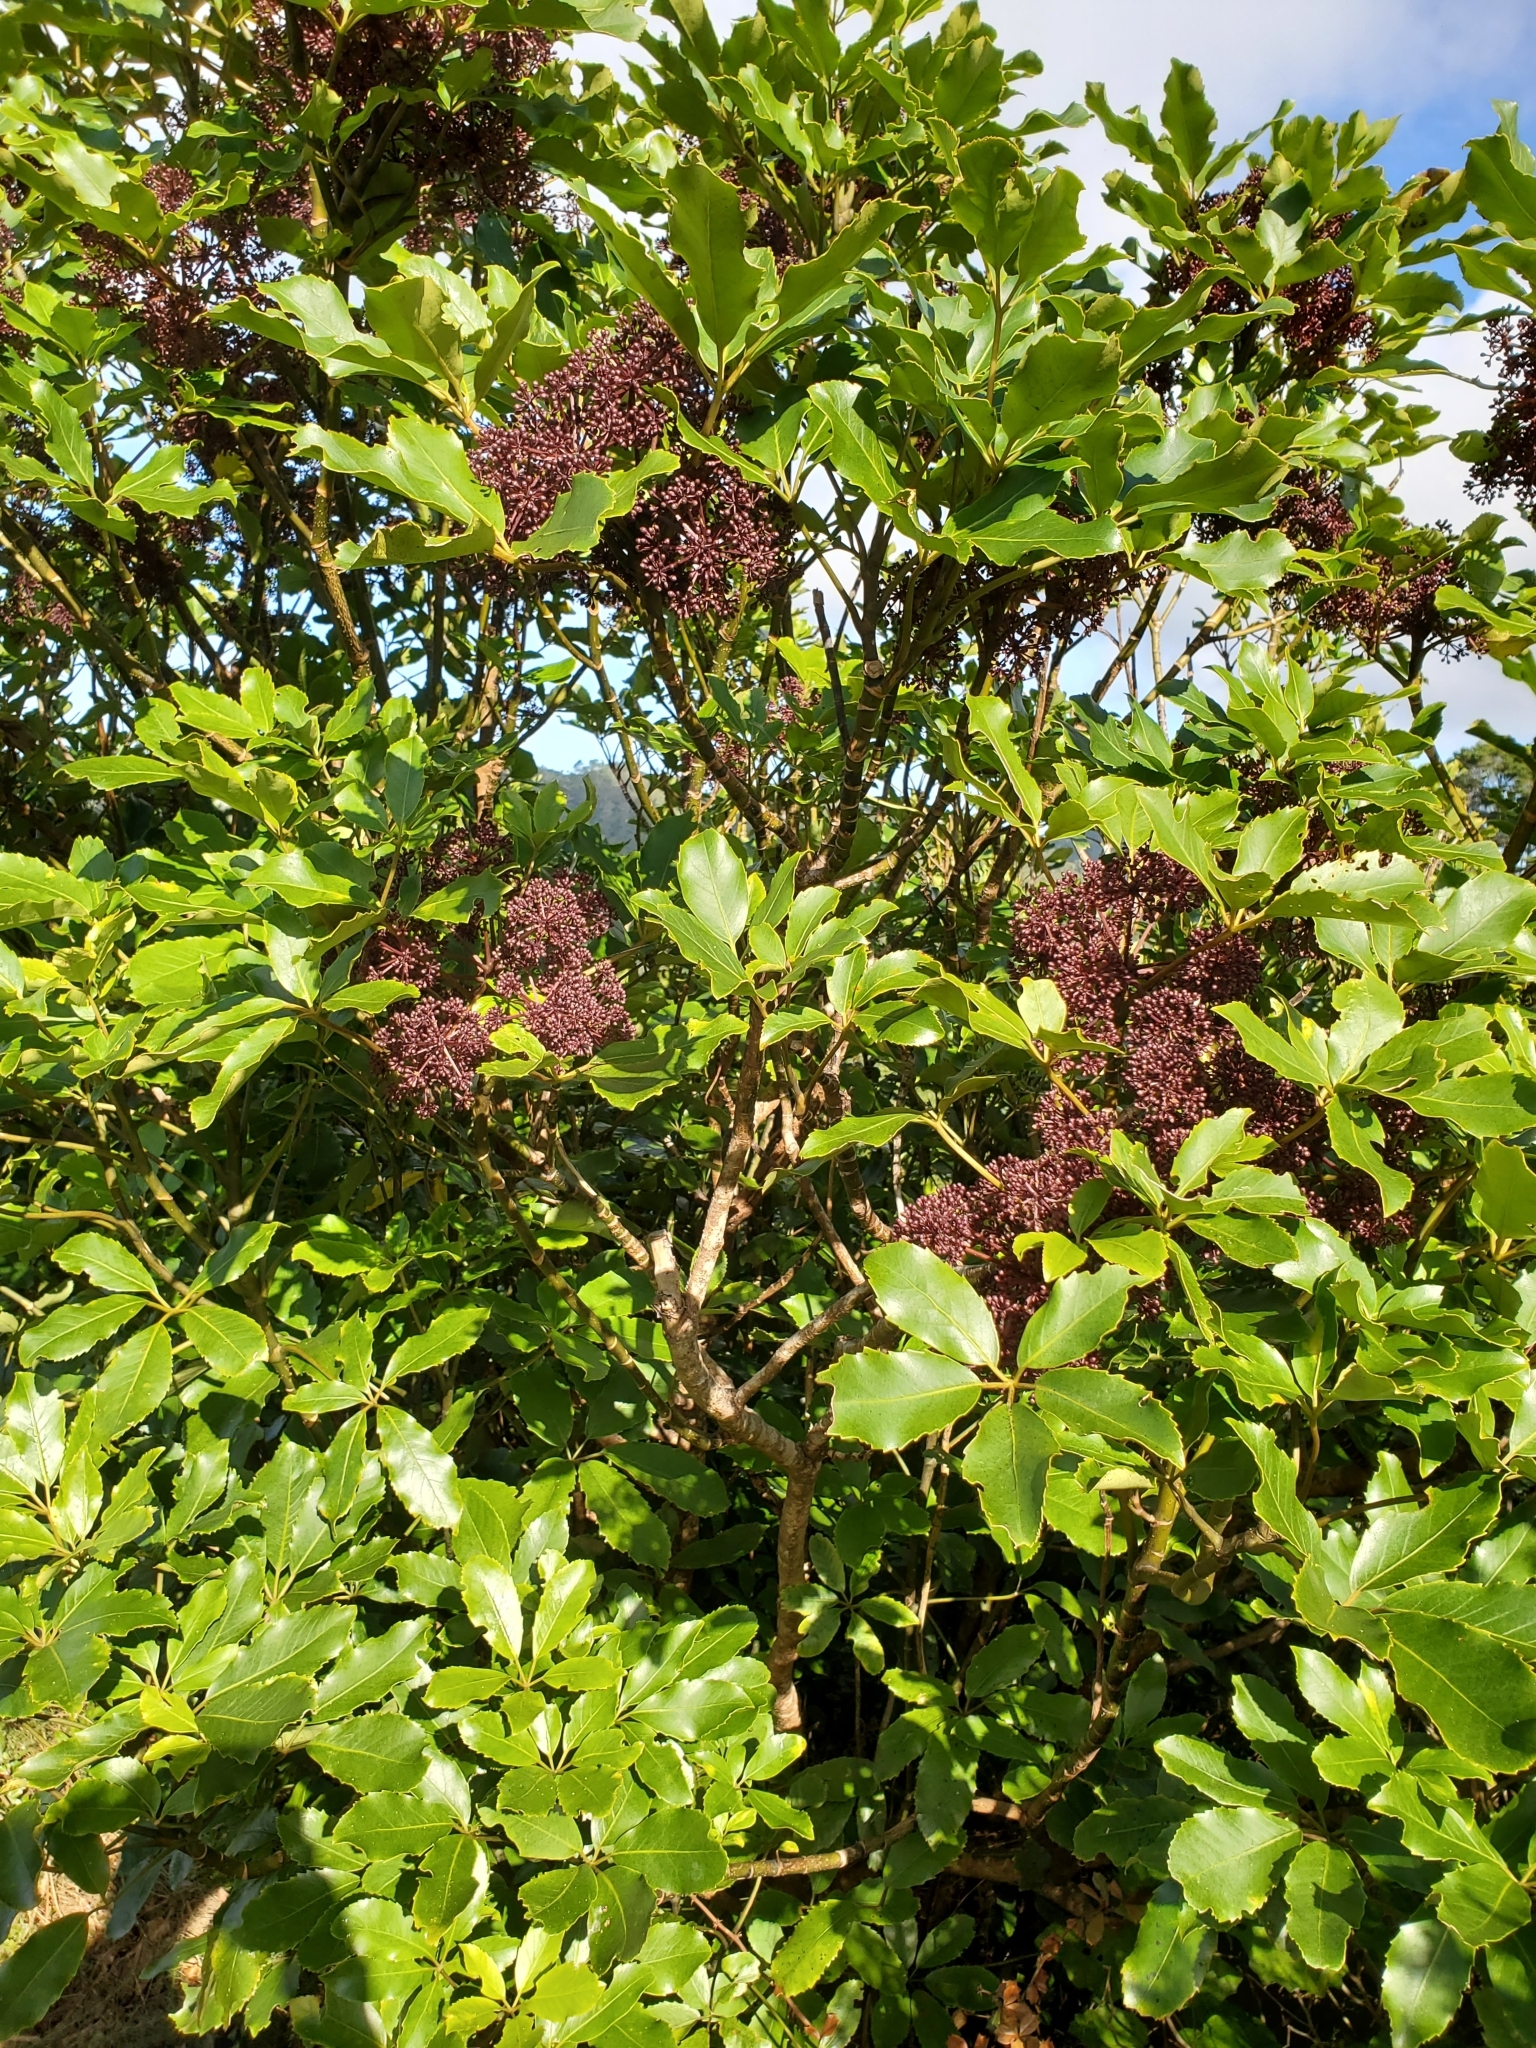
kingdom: Plantae
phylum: Tracheophyta
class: Magnoliopsida
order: Apiales
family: Araliaceae
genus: Neopanax
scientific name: Neopanax arboreus
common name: Five-fingers
